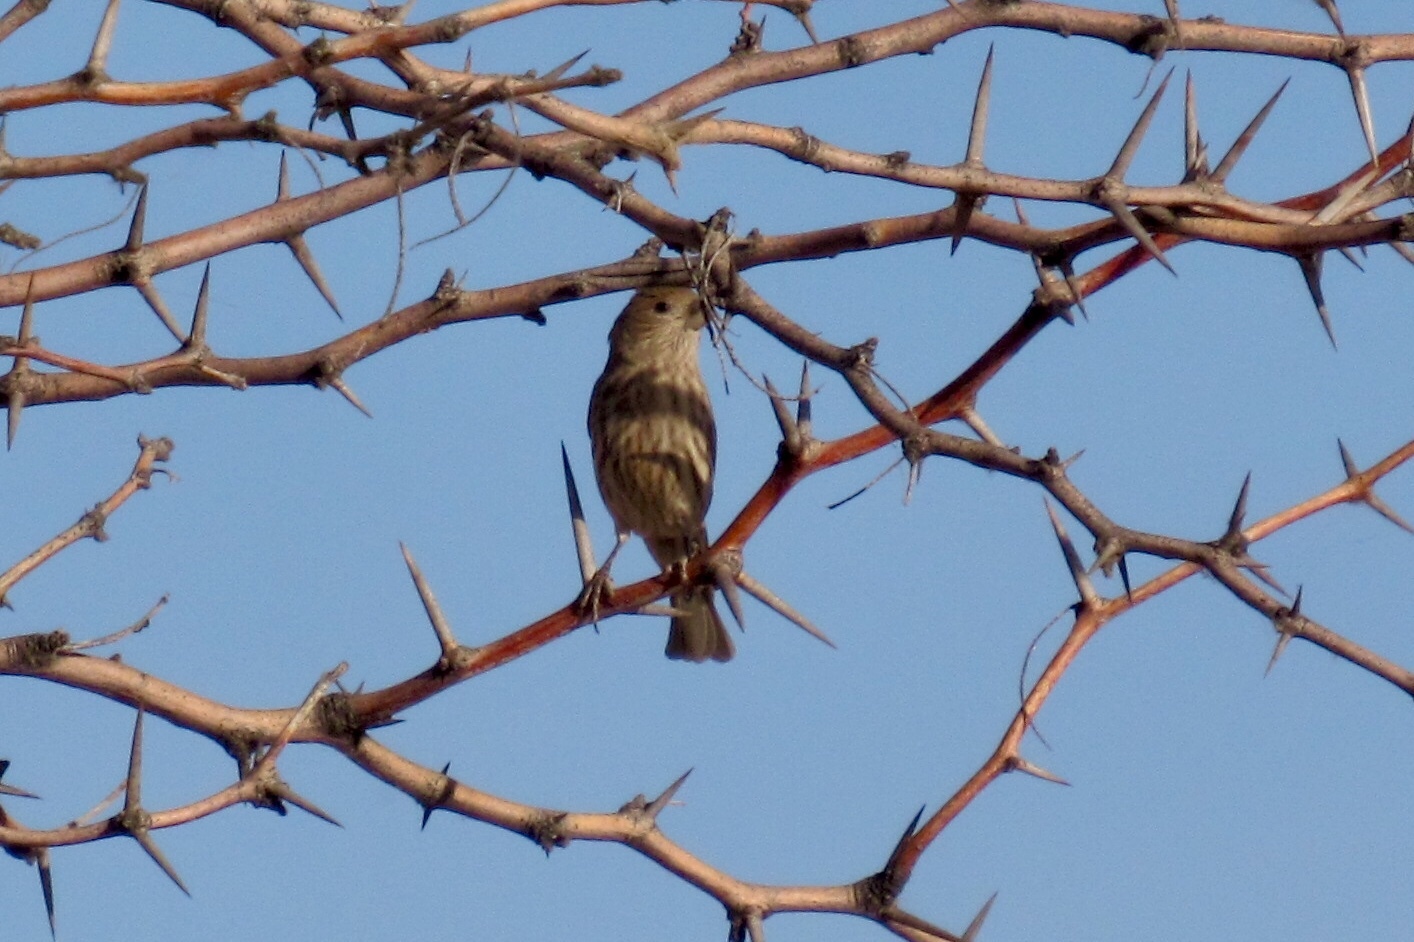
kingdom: Animalia
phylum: Chordata
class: Aves
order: Passeriformes
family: Fringillidae
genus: Haemorhous
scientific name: Haemorhous mexicanus
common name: House finch
